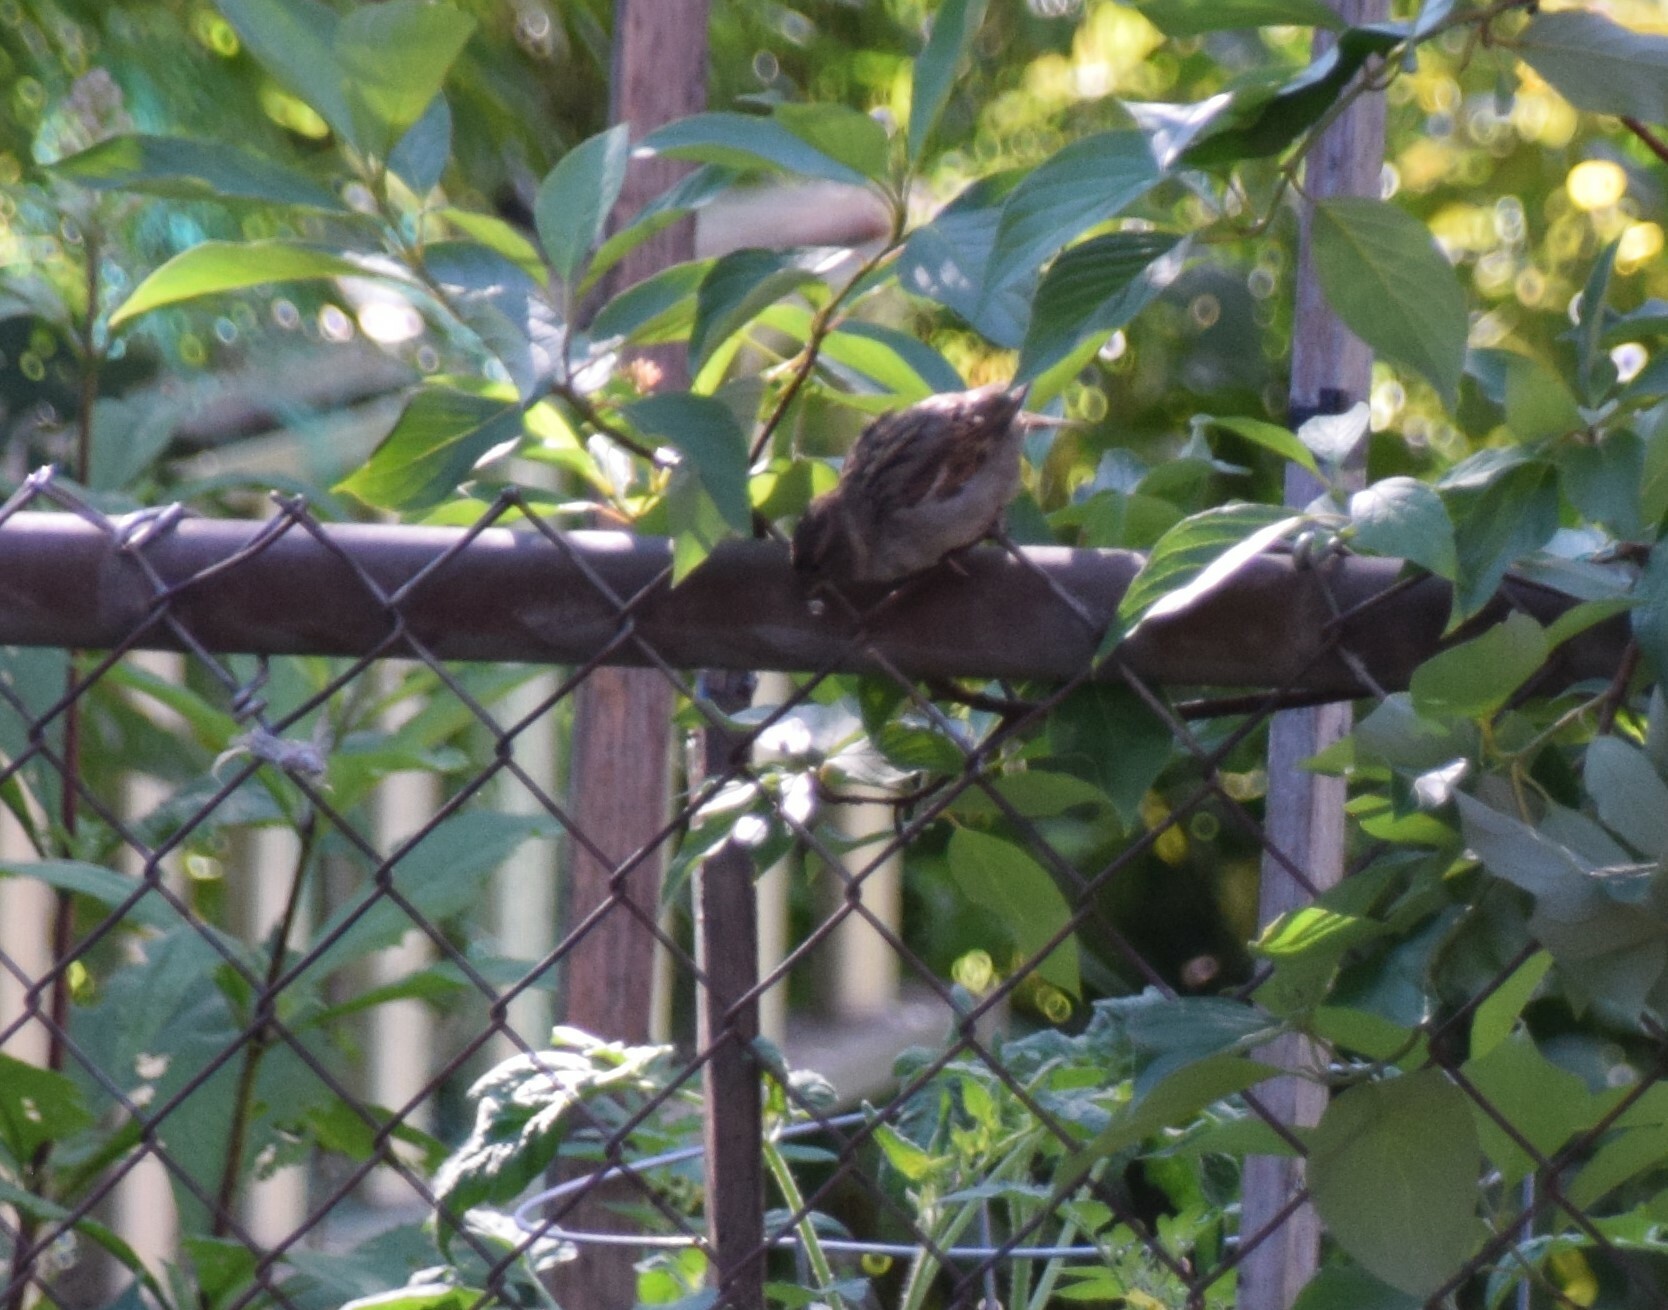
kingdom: Animalia
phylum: Chordata
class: Aves
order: Passeriformes
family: Passeridae
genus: Passer
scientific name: Passer domesticus
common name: House sparrow
